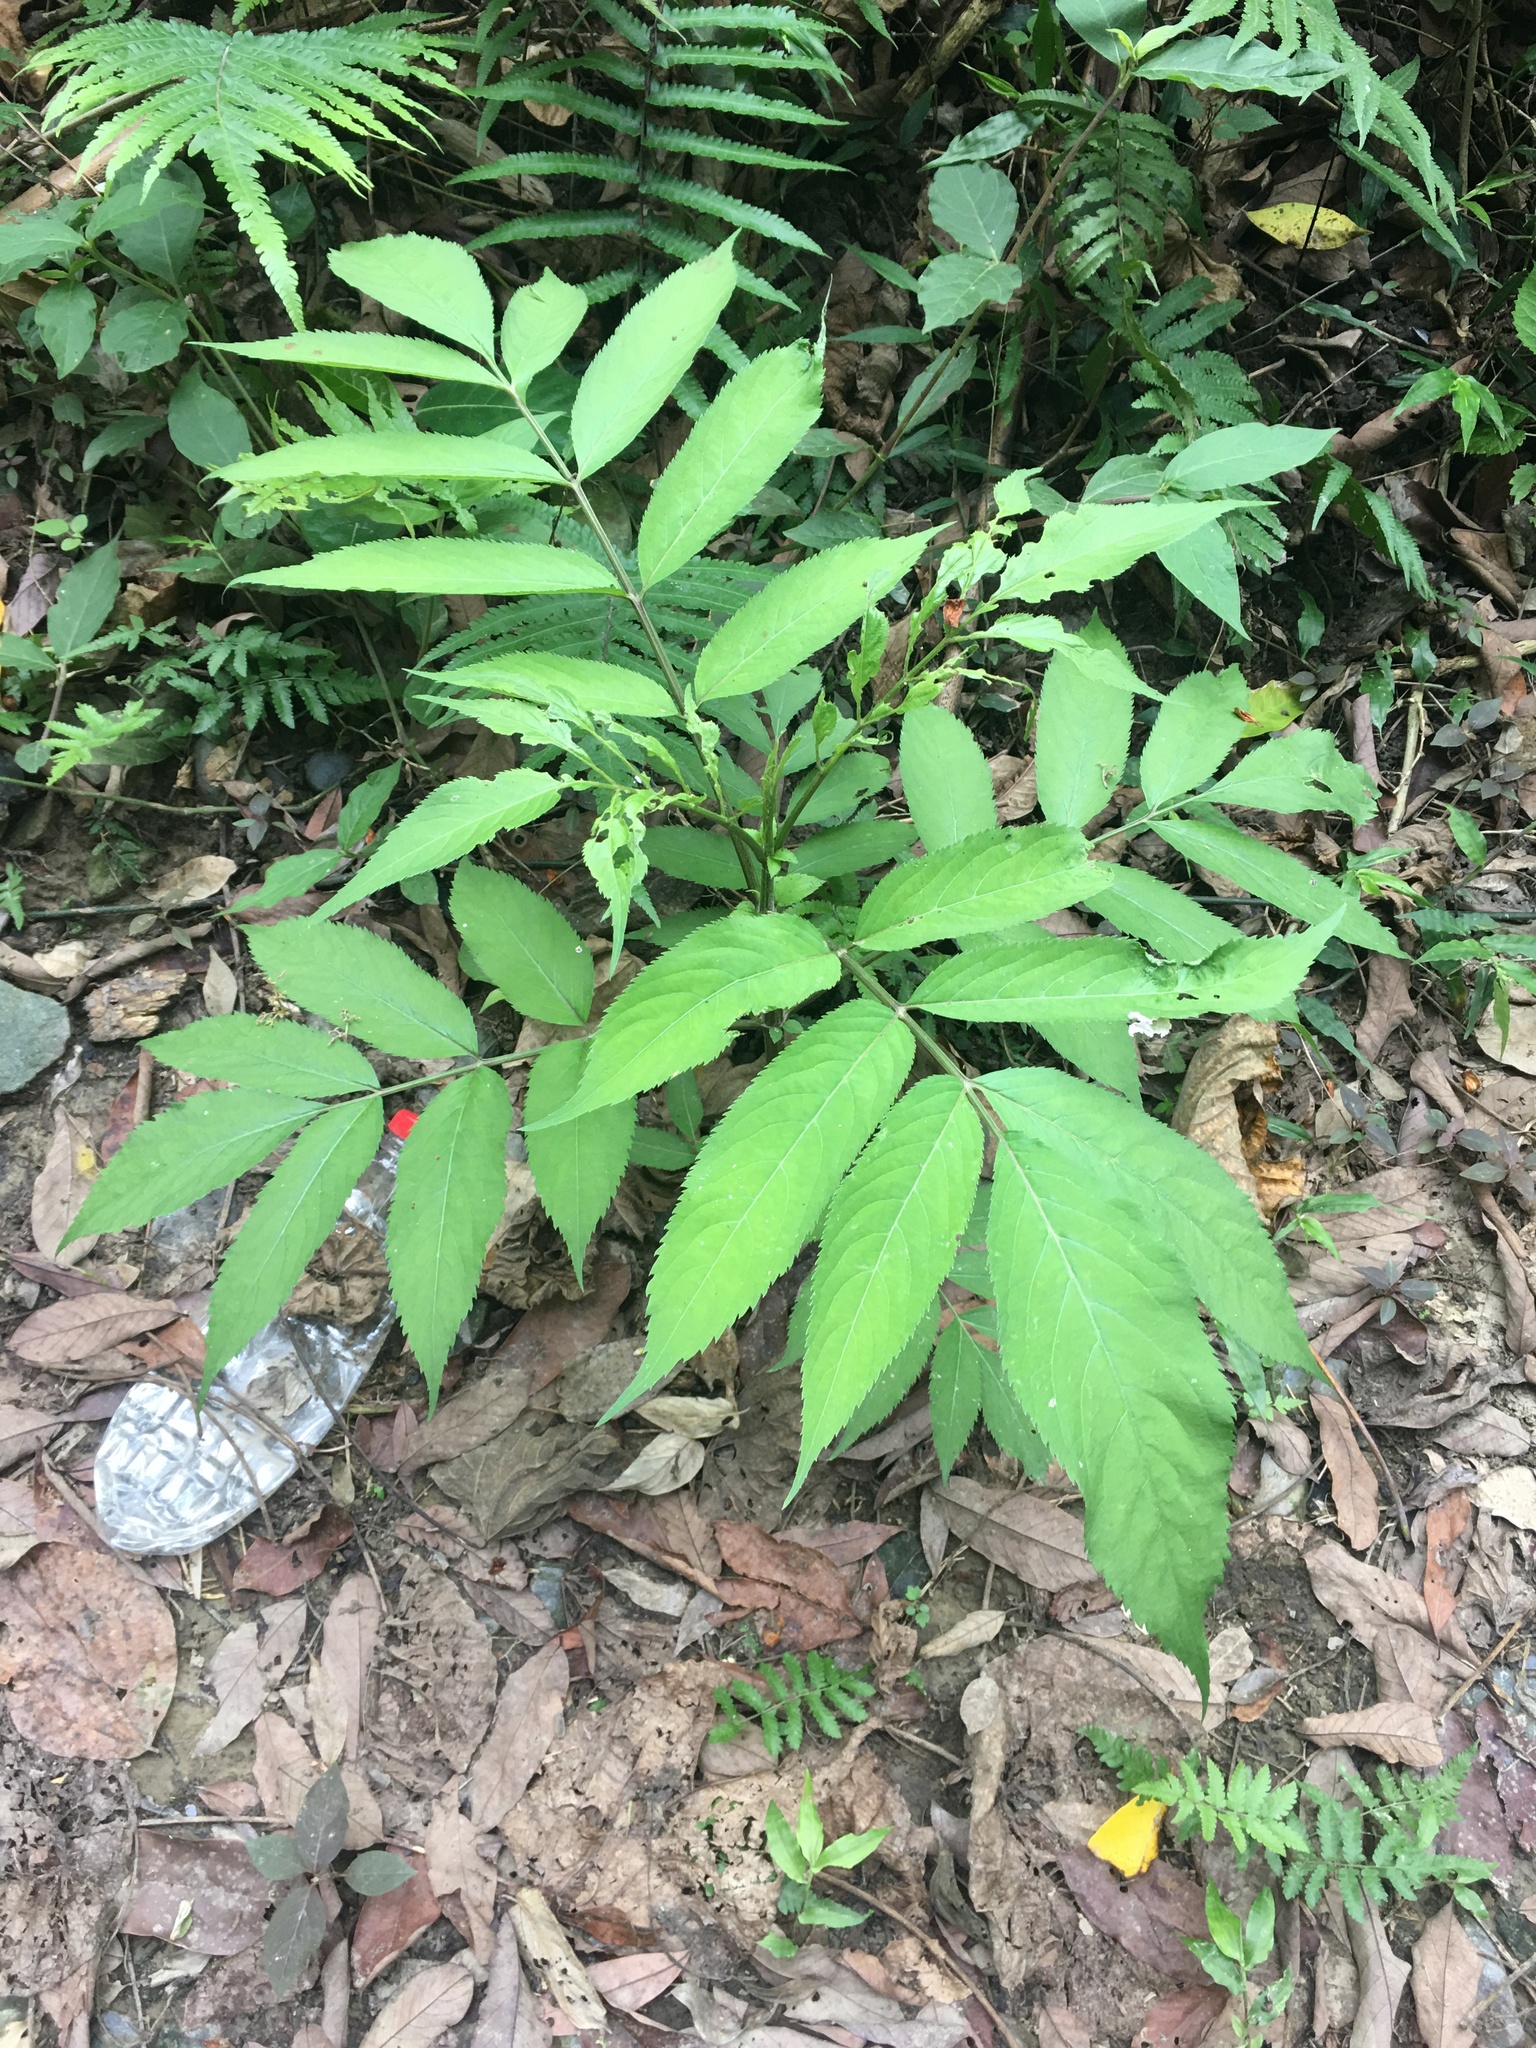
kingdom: Plantae
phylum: Tracheophyta
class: Magnoliopsida
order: Dipsacales
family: Viburnaceae
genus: Sambucus
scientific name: Sambucus javanica
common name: Chinese elder
